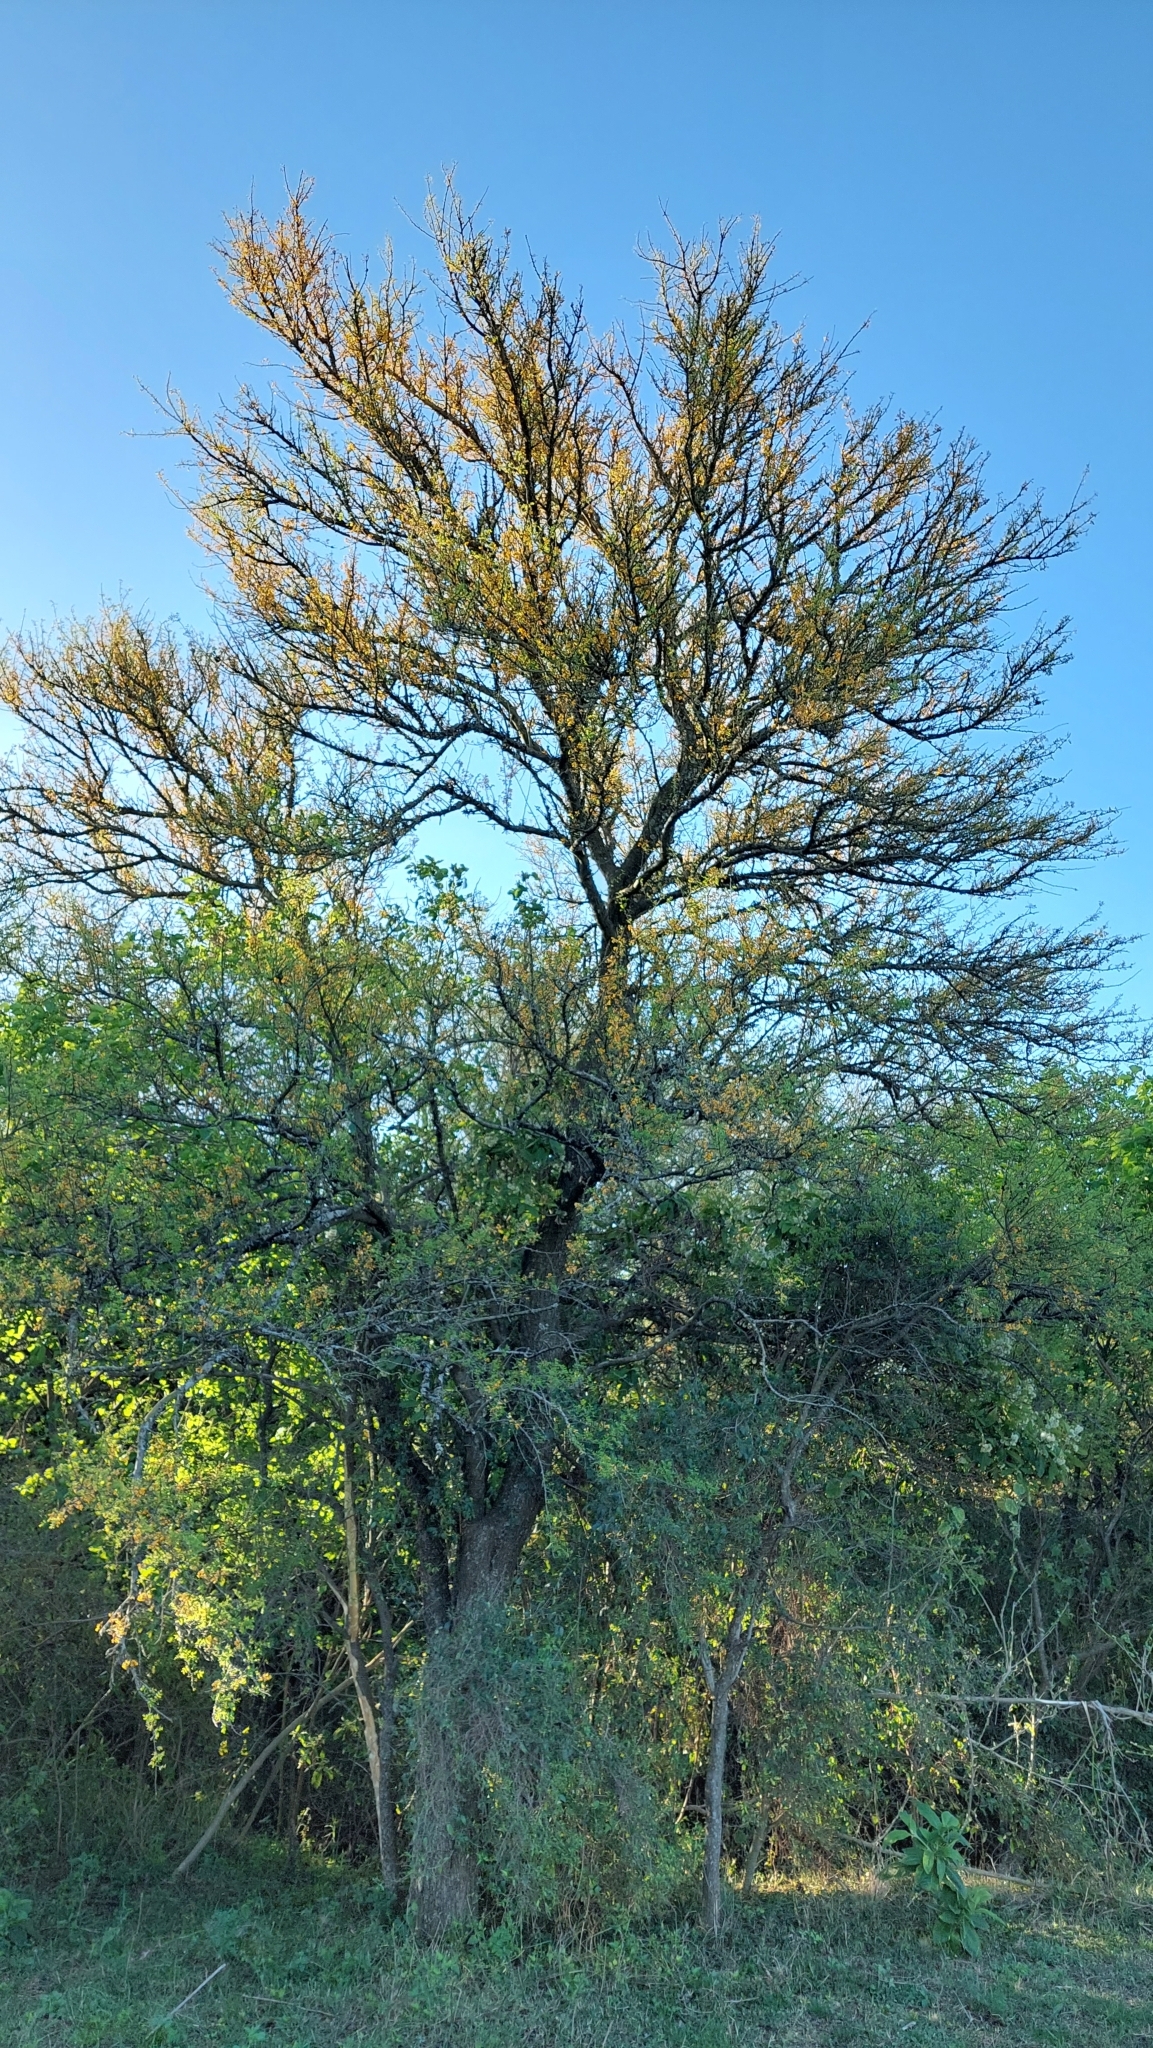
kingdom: Plantae
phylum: Tracheophyta
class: Magnoliopsida
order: Fabales
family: Fabaceae
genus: Vachellia
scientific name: Vachellia caven
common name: Roman cassie
